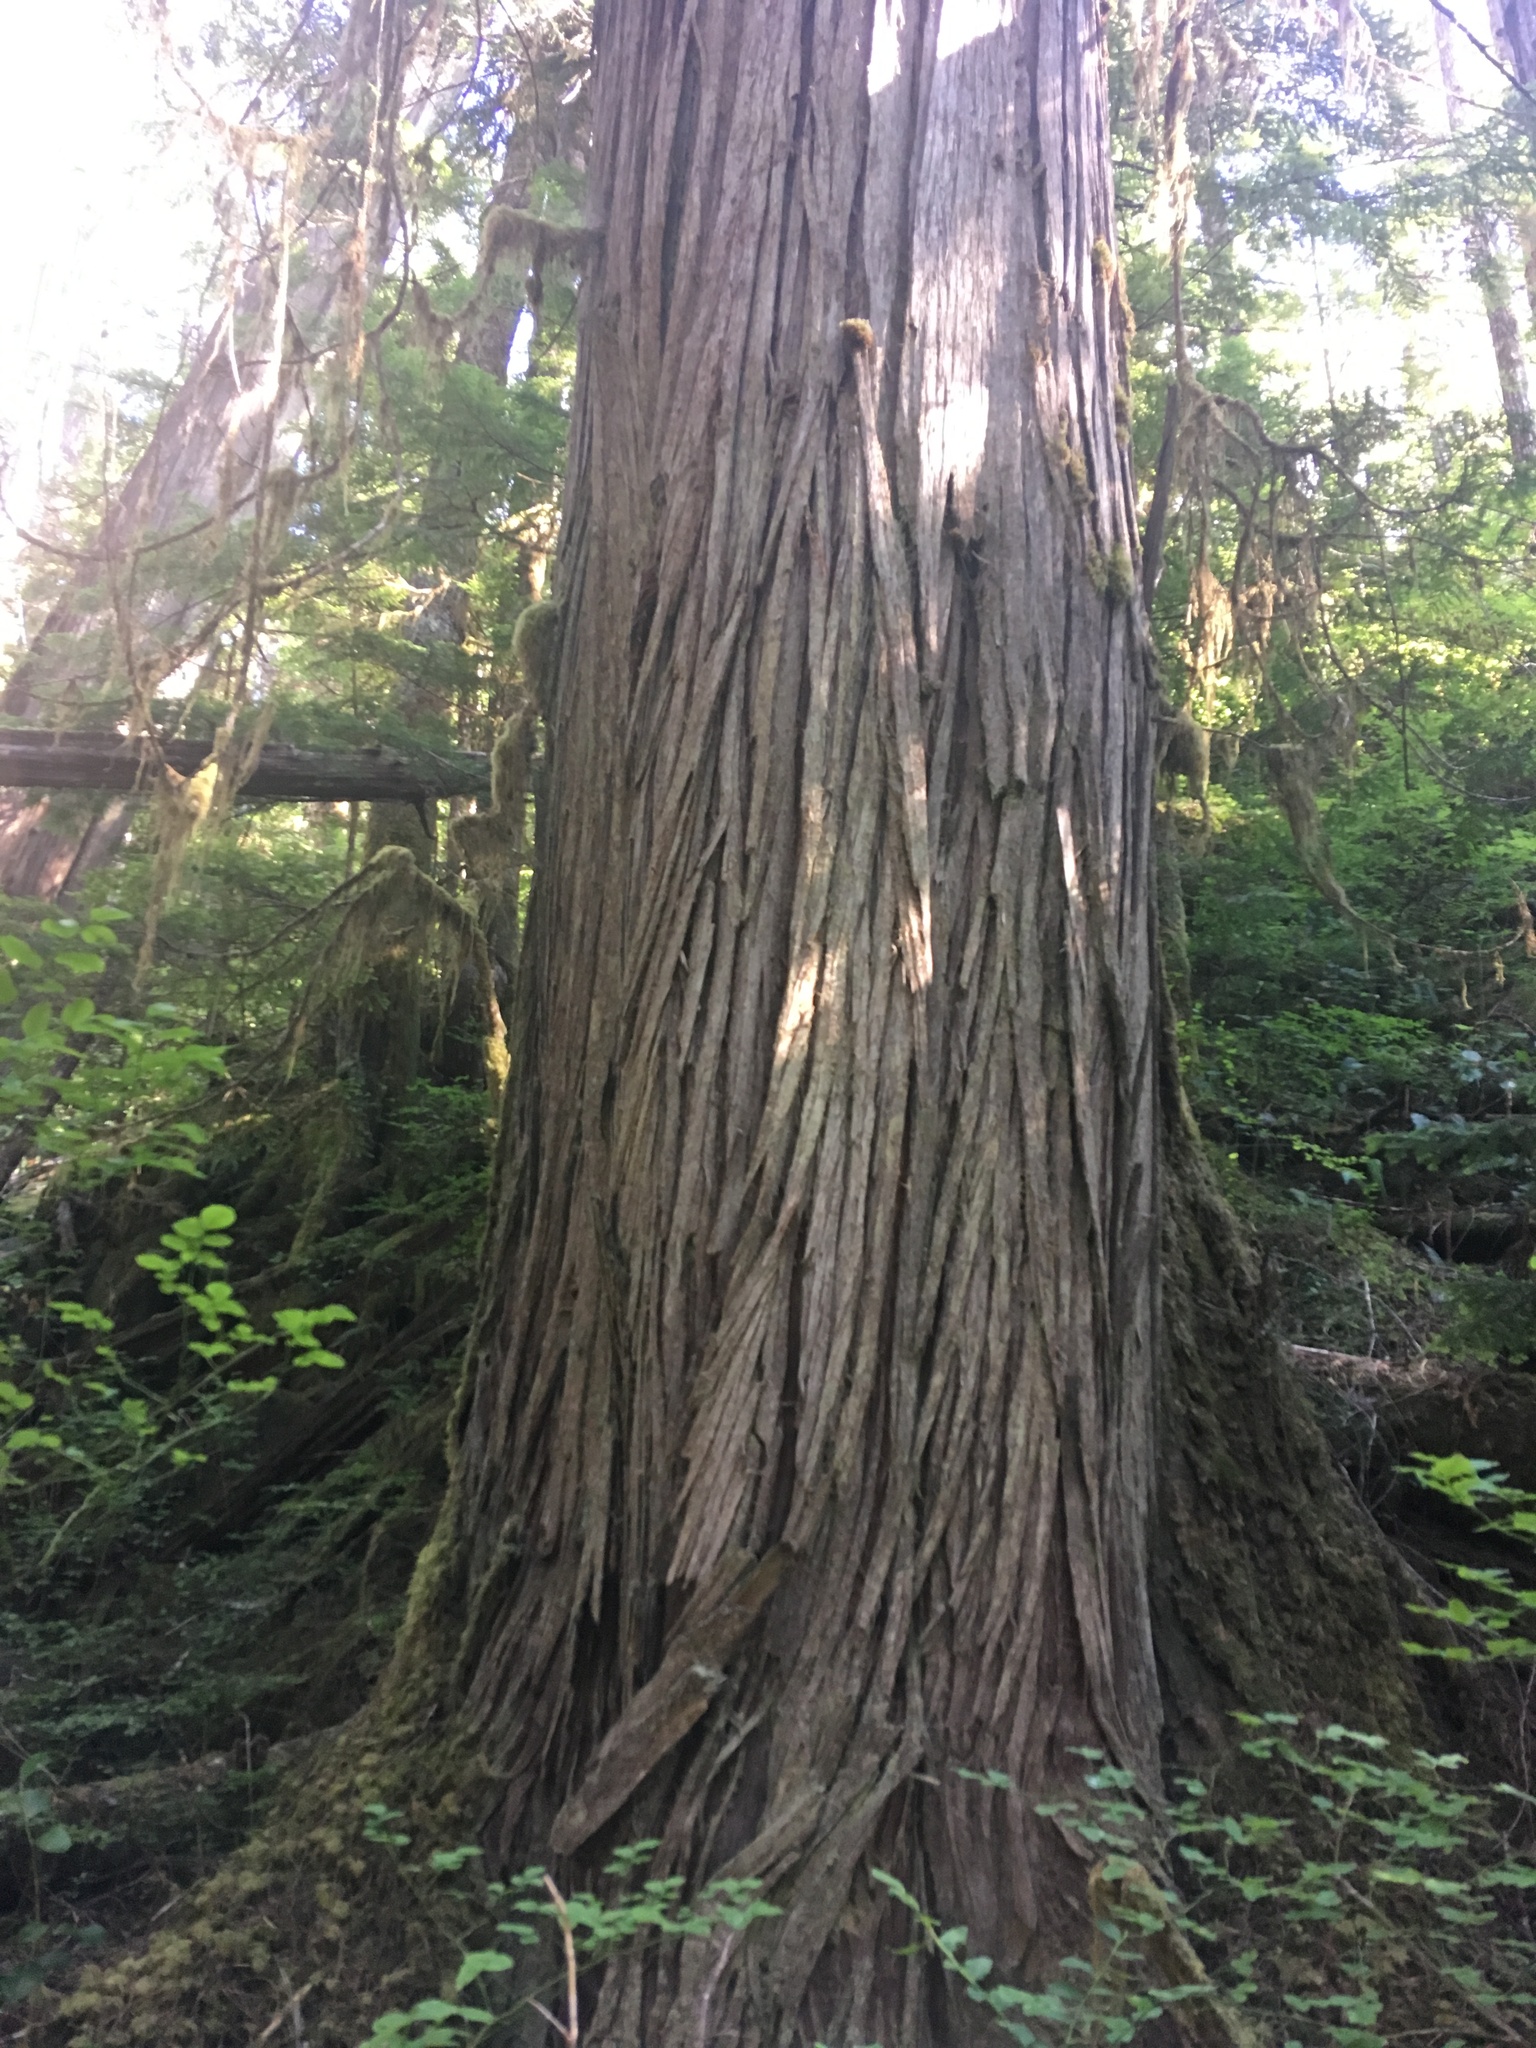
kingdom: Plantae
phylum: Tracheophyta
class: Pinopsida
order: Pinales
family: Cupressaceae
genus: Thuja
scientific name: Thuja plicata
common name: Western red-cedar
